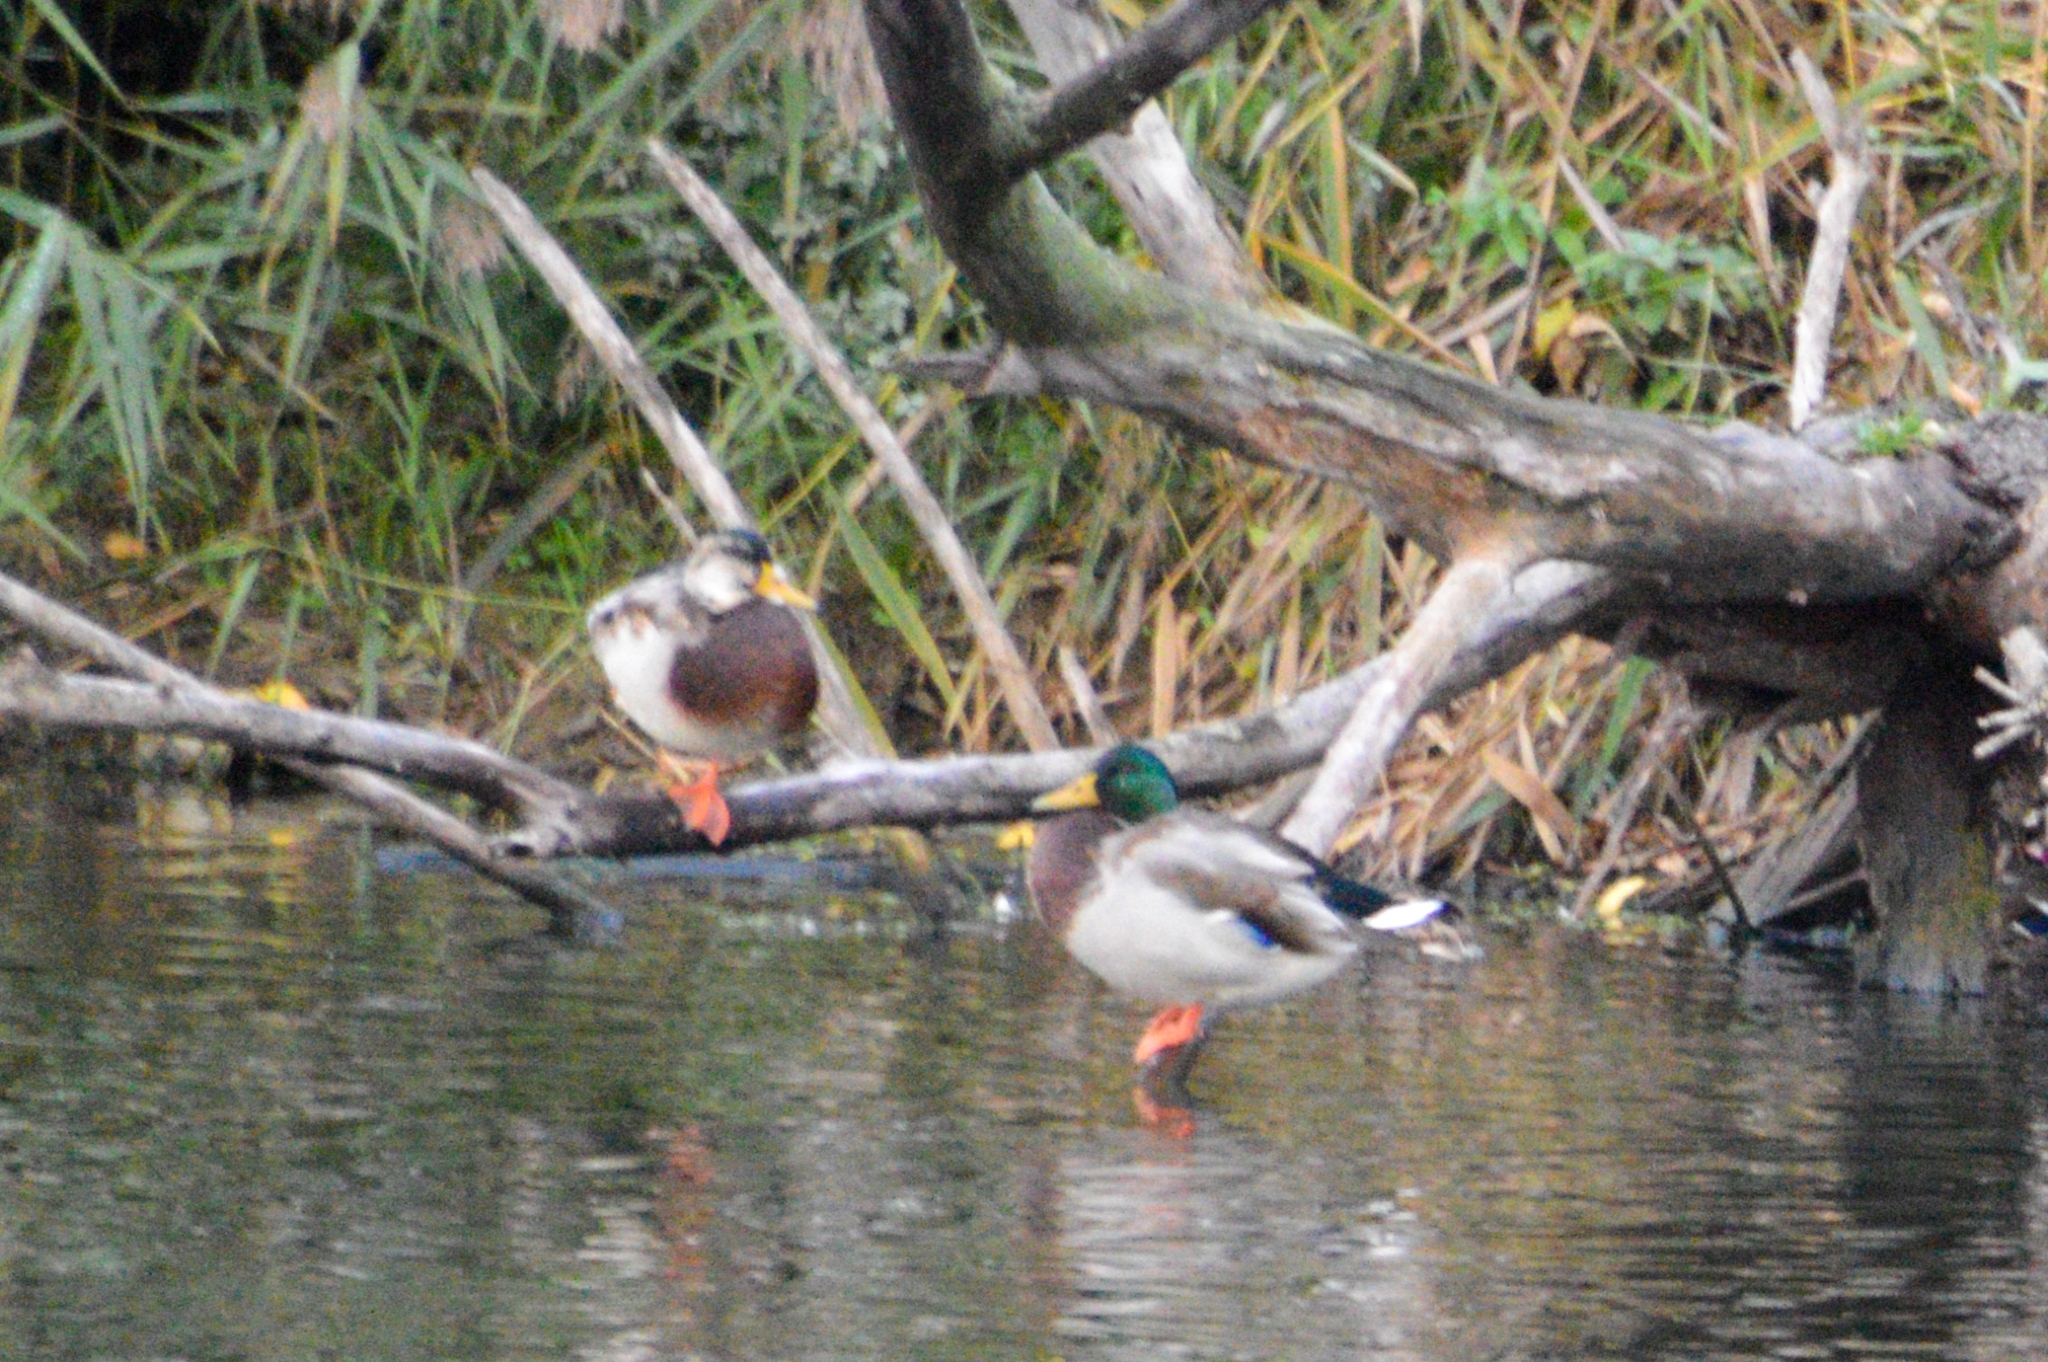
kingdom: Animalia
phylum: Chordata
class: Aves
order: Anseriformes
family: Anatidae
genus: Anas
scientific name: Anas platyrhynchos
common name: Mallard
